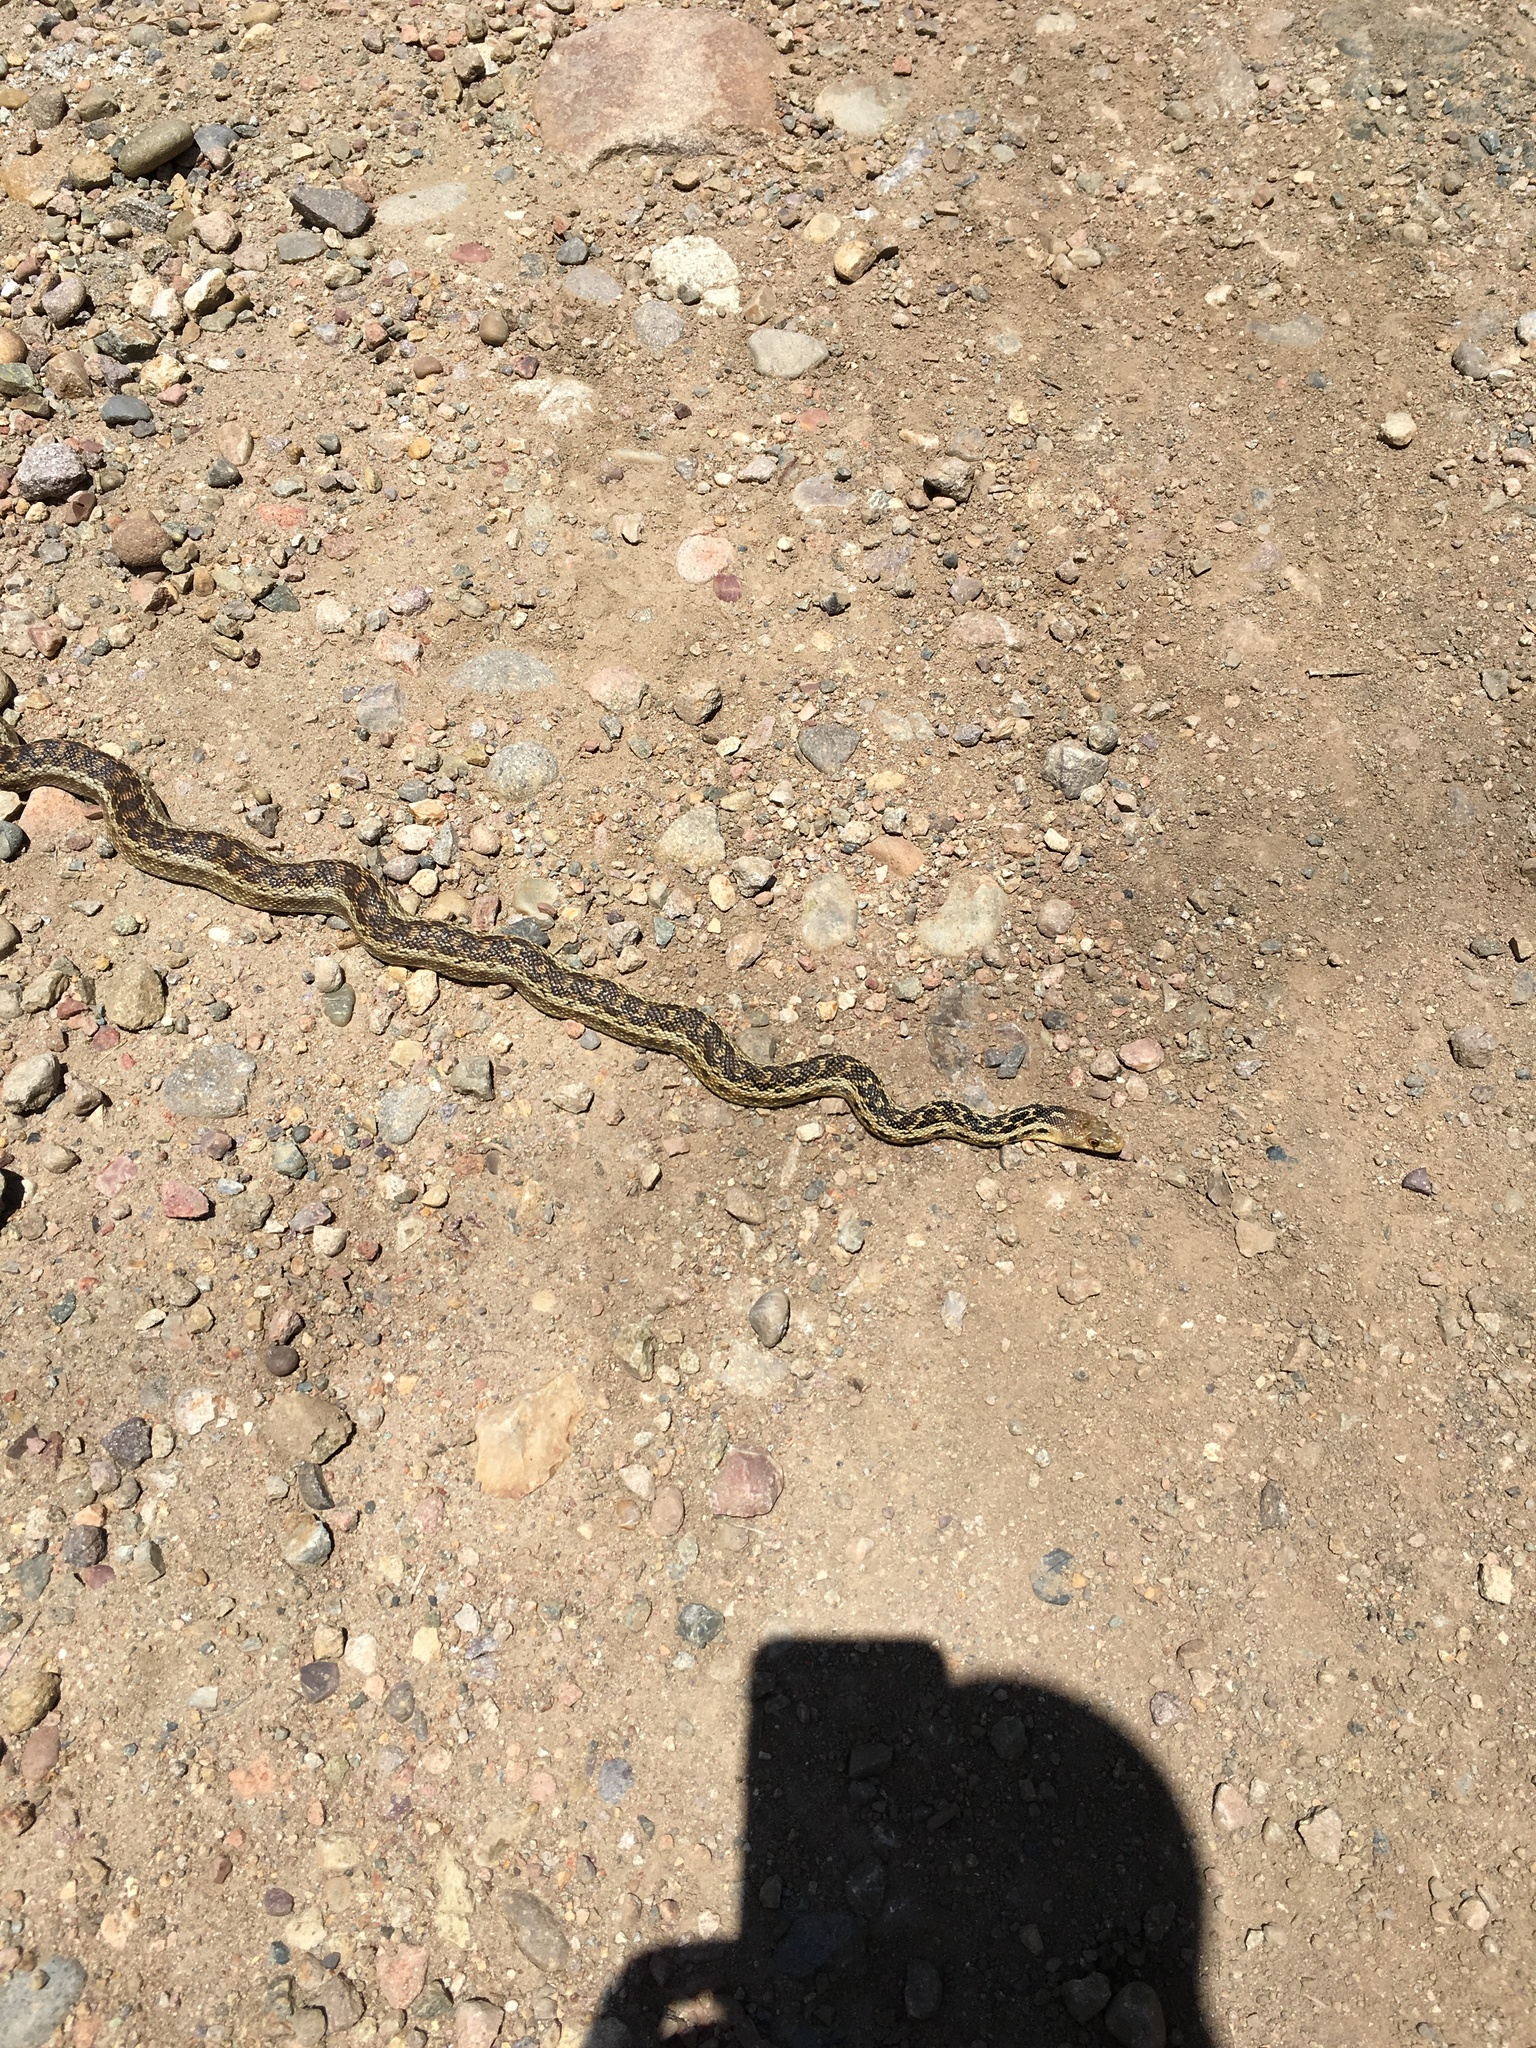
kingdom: Animalia
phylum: Chordata
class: Squamata
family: Colubridae
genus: Pituophis
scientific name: Pituophis catenifer
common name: Gopher snake
